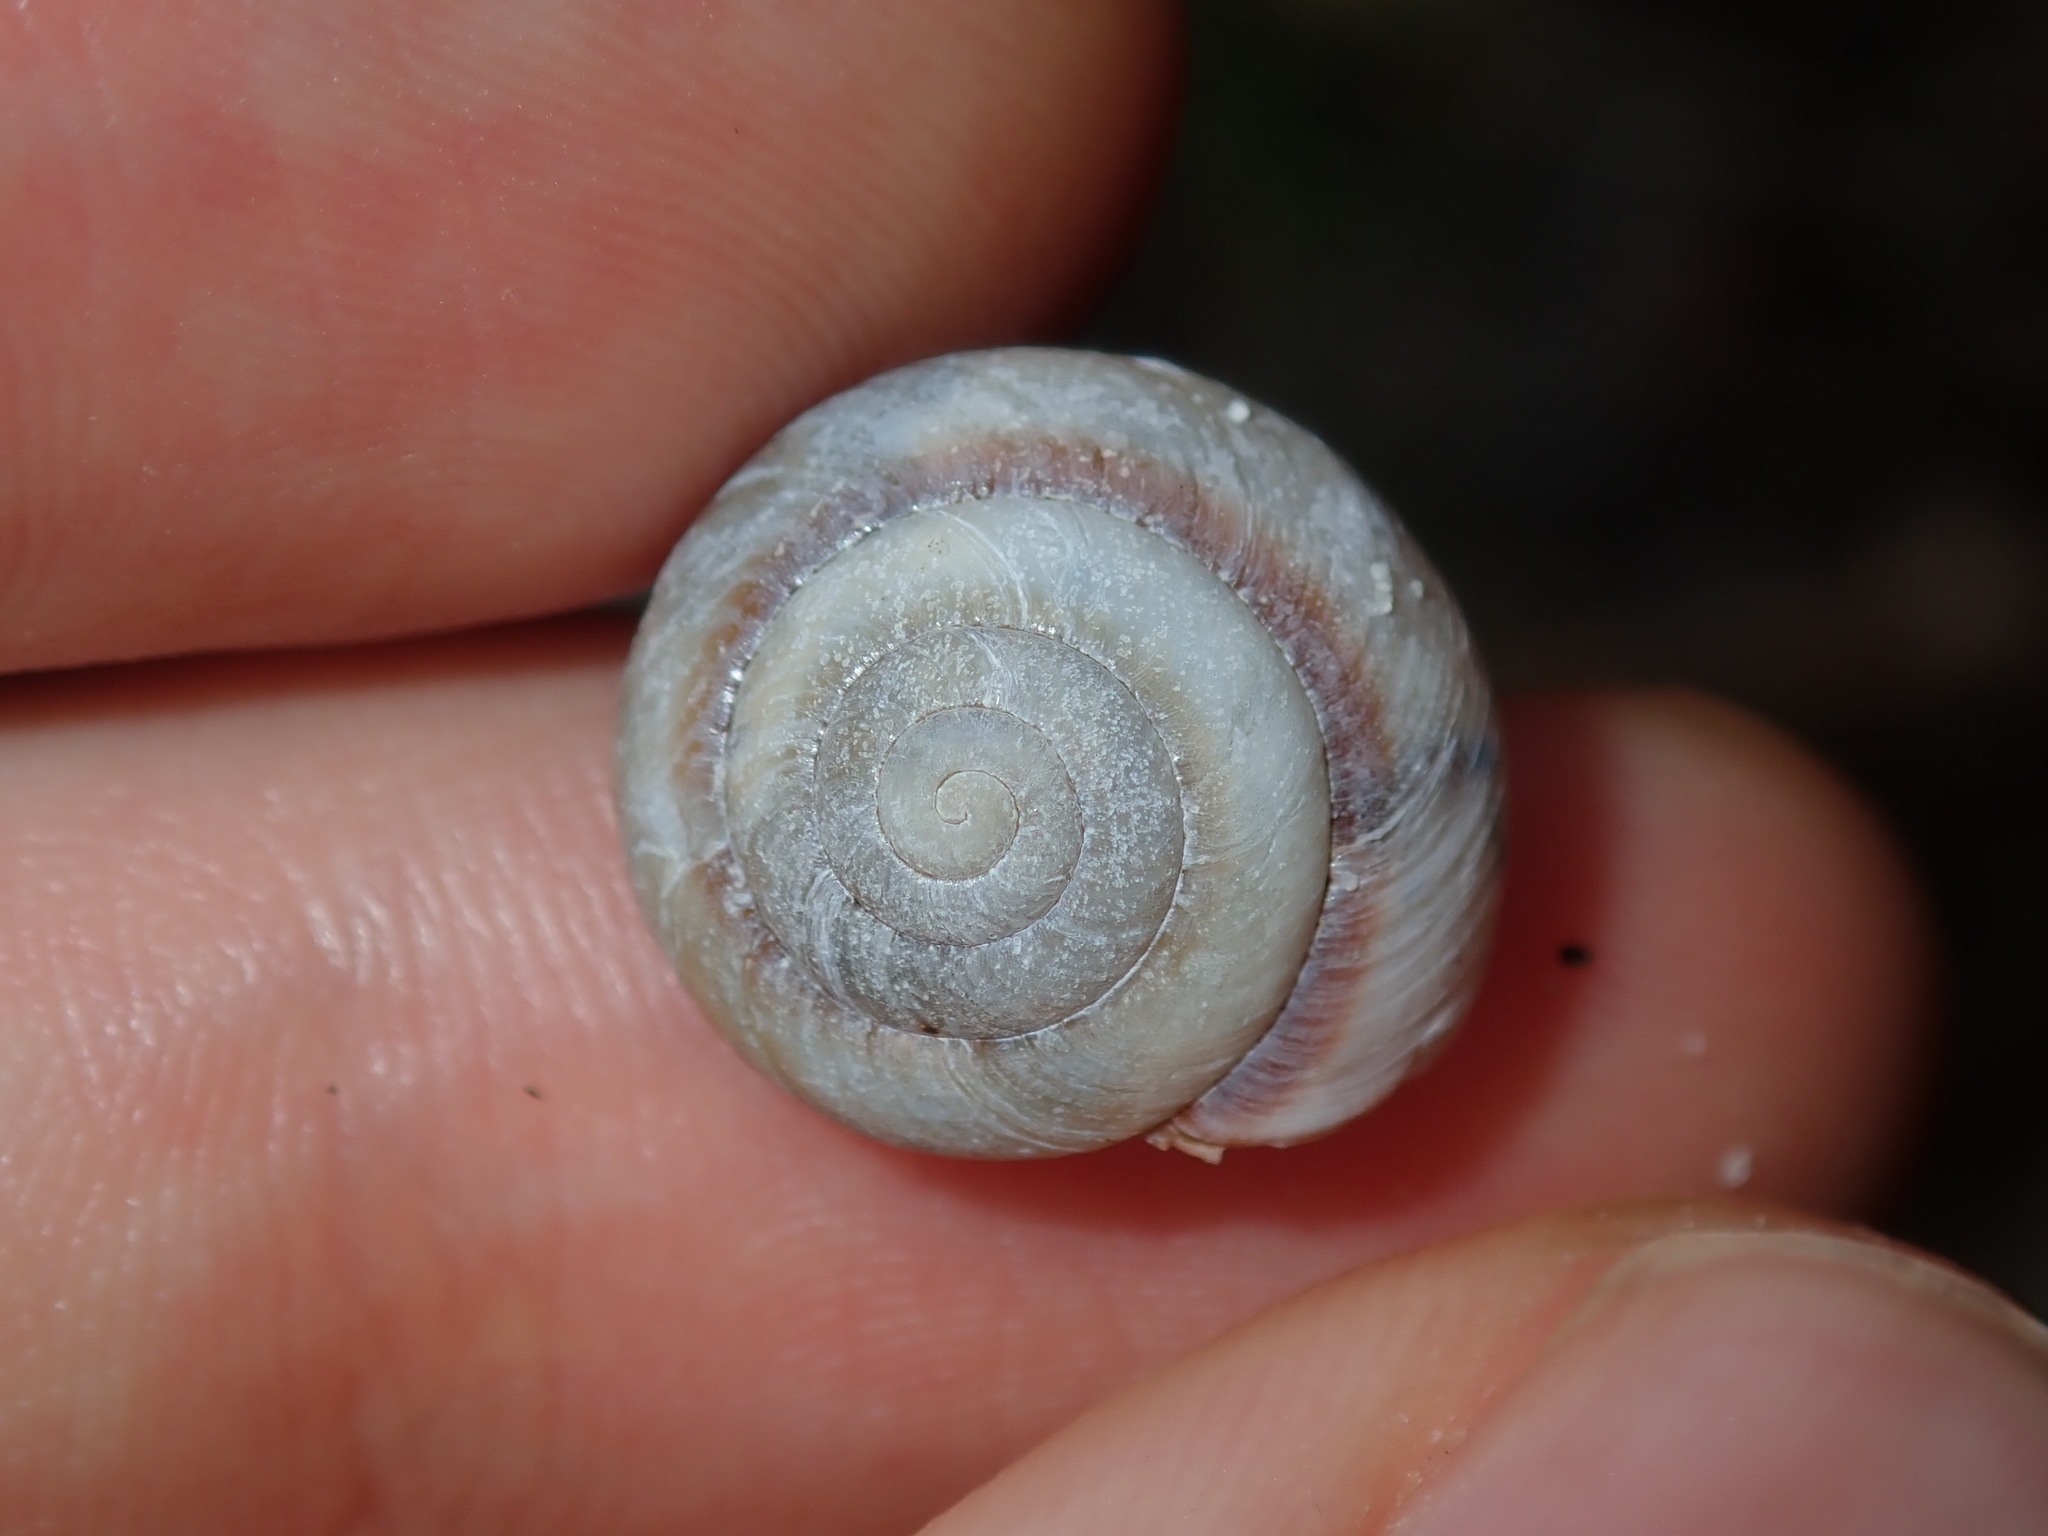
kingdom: Animalia
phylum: Mollusca
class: Gastropoda
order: Stylommatophora
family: Camaenidae
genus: Galadistes
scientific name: Galadistes akubra
